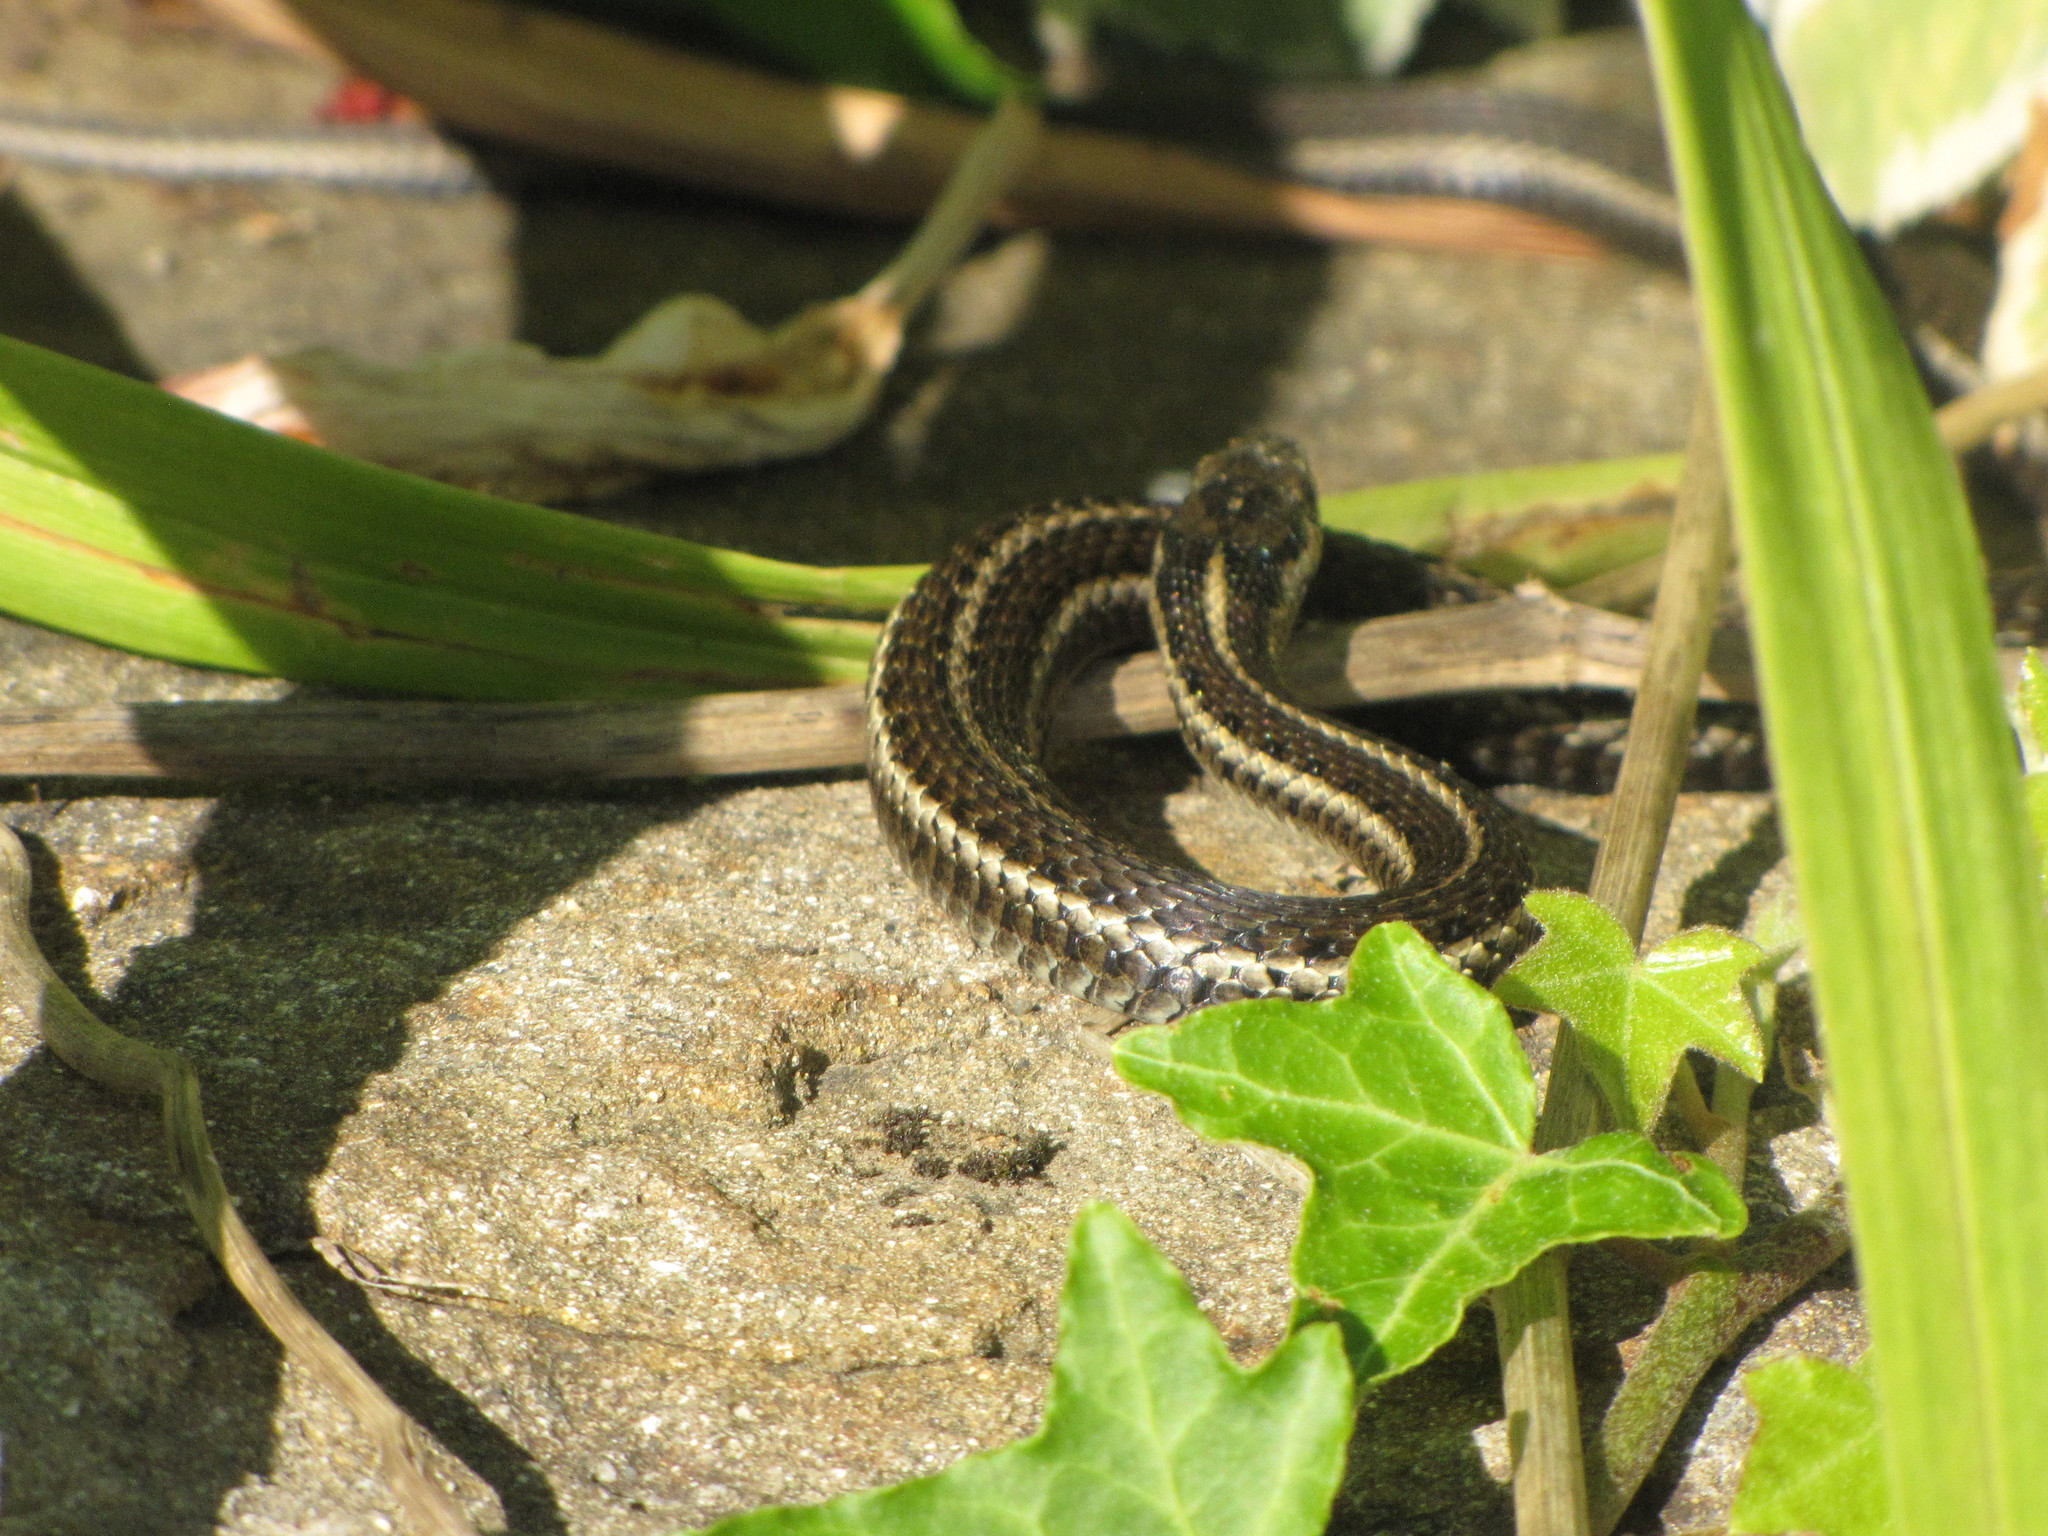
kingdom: Animalia
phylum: Chordata
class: Squamata
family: Colubridae
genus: Thamnophis
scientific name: Thamnophis ordinoides
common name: Northwestern garter snake
